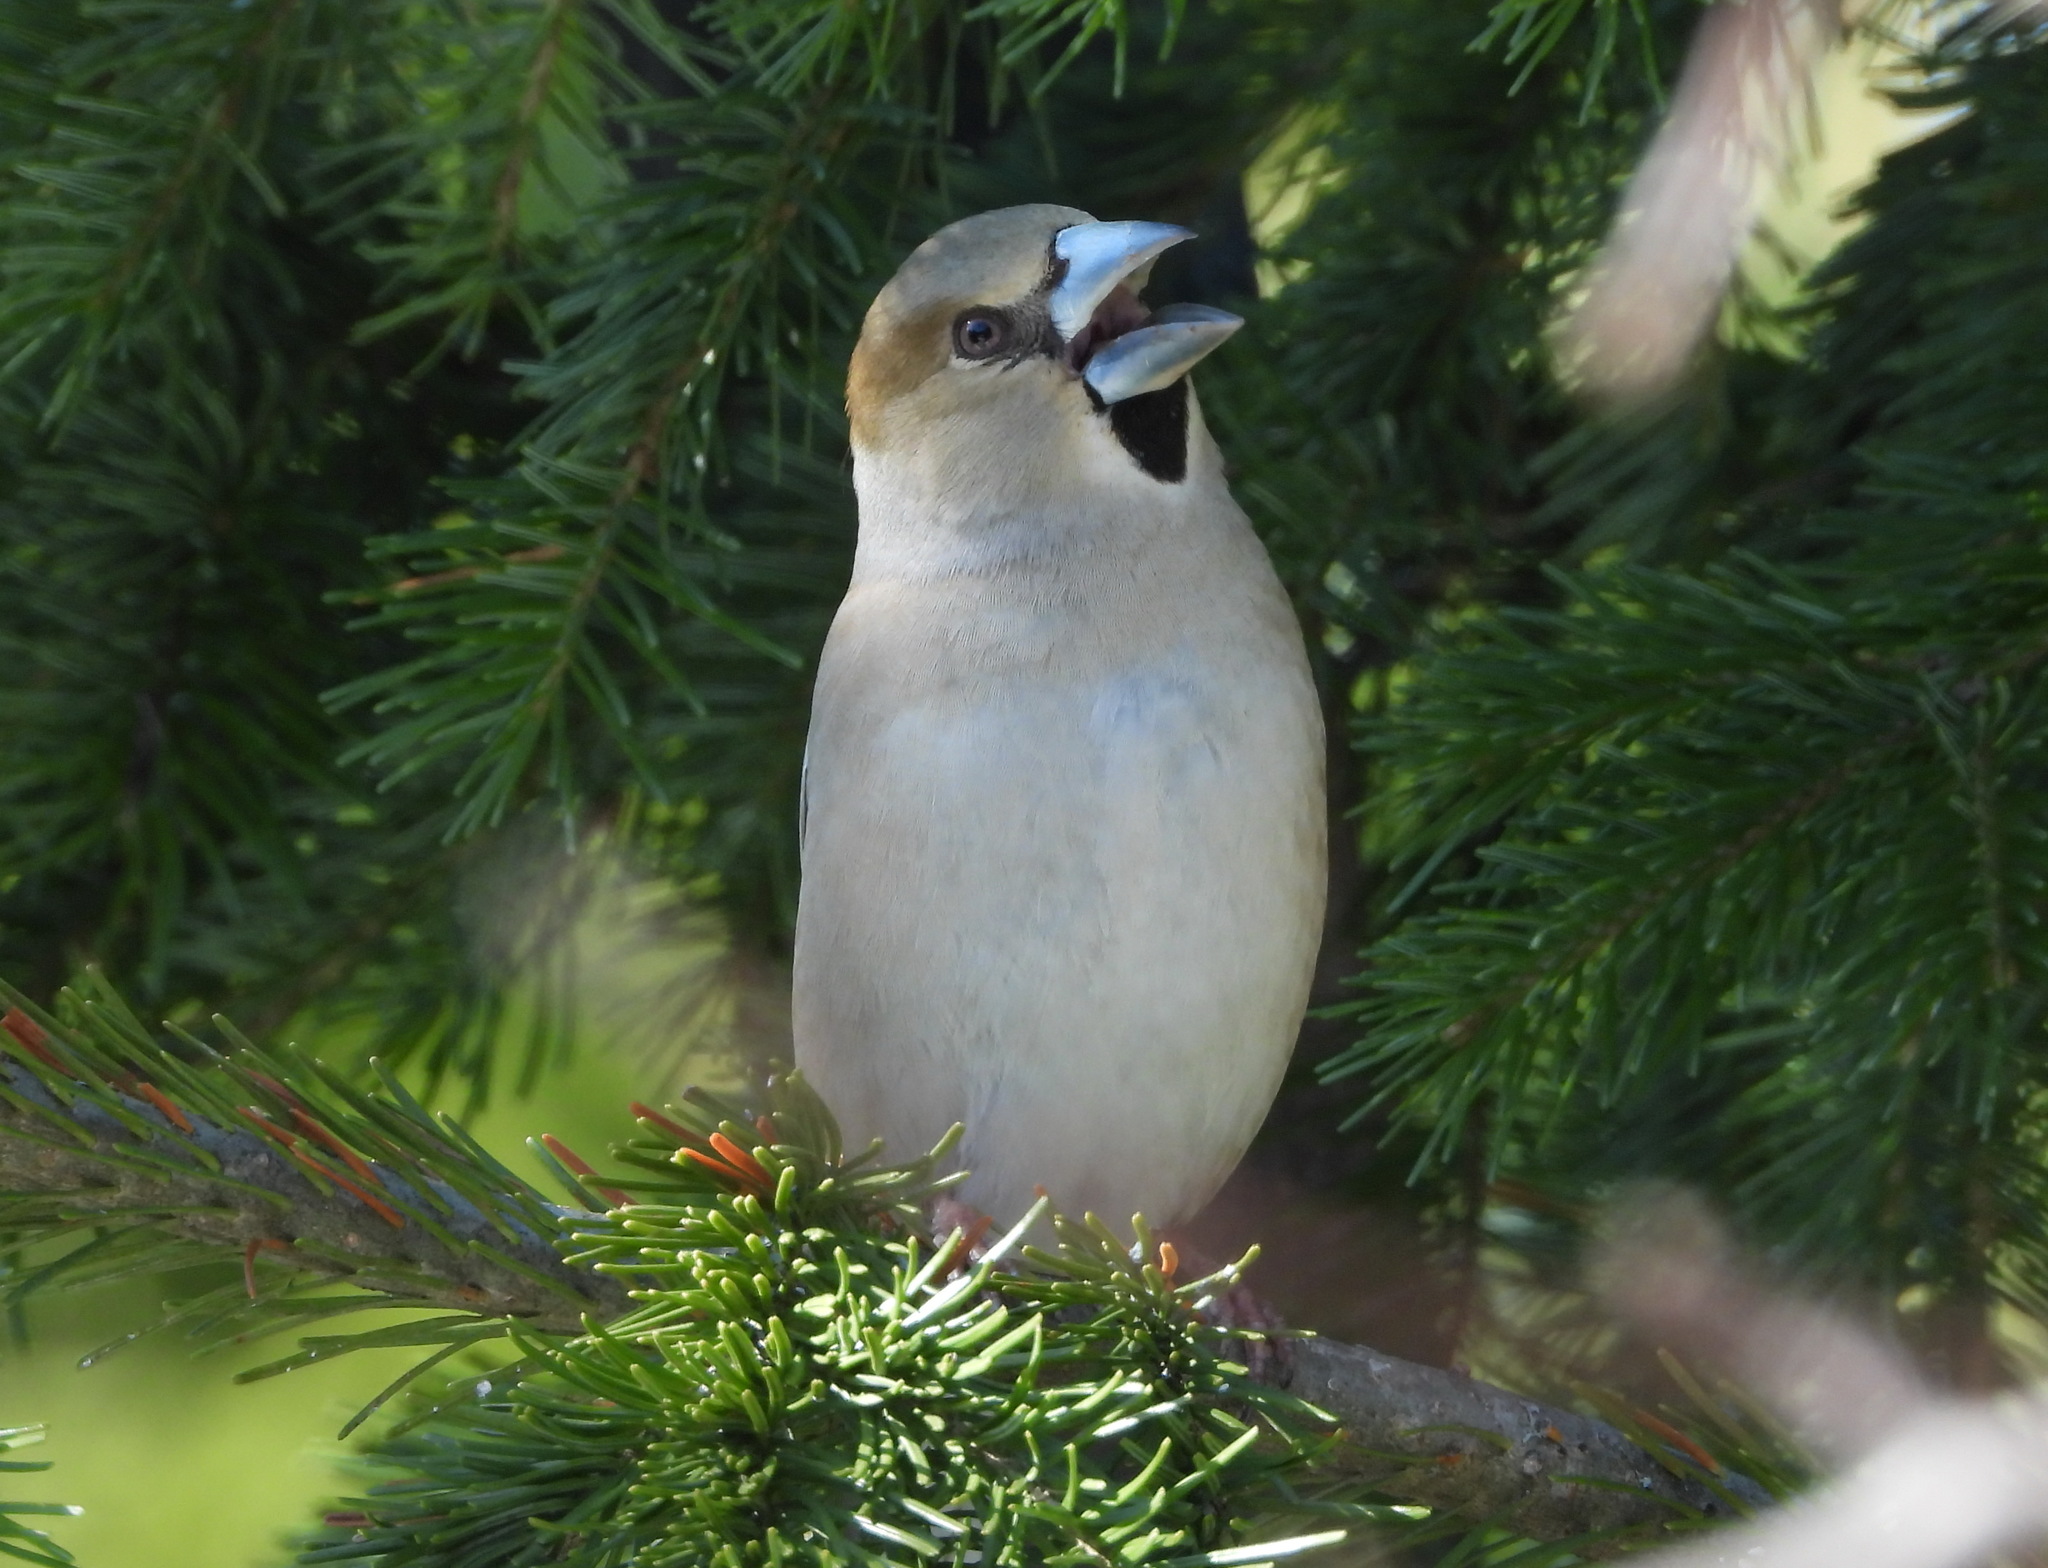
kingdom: Animalia
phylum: Chordata
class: Aves
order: Passeriformes
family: Fringillidae
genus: Coccothraustes
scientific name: Coccothraustes coccothraustes
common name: Hawfinch
